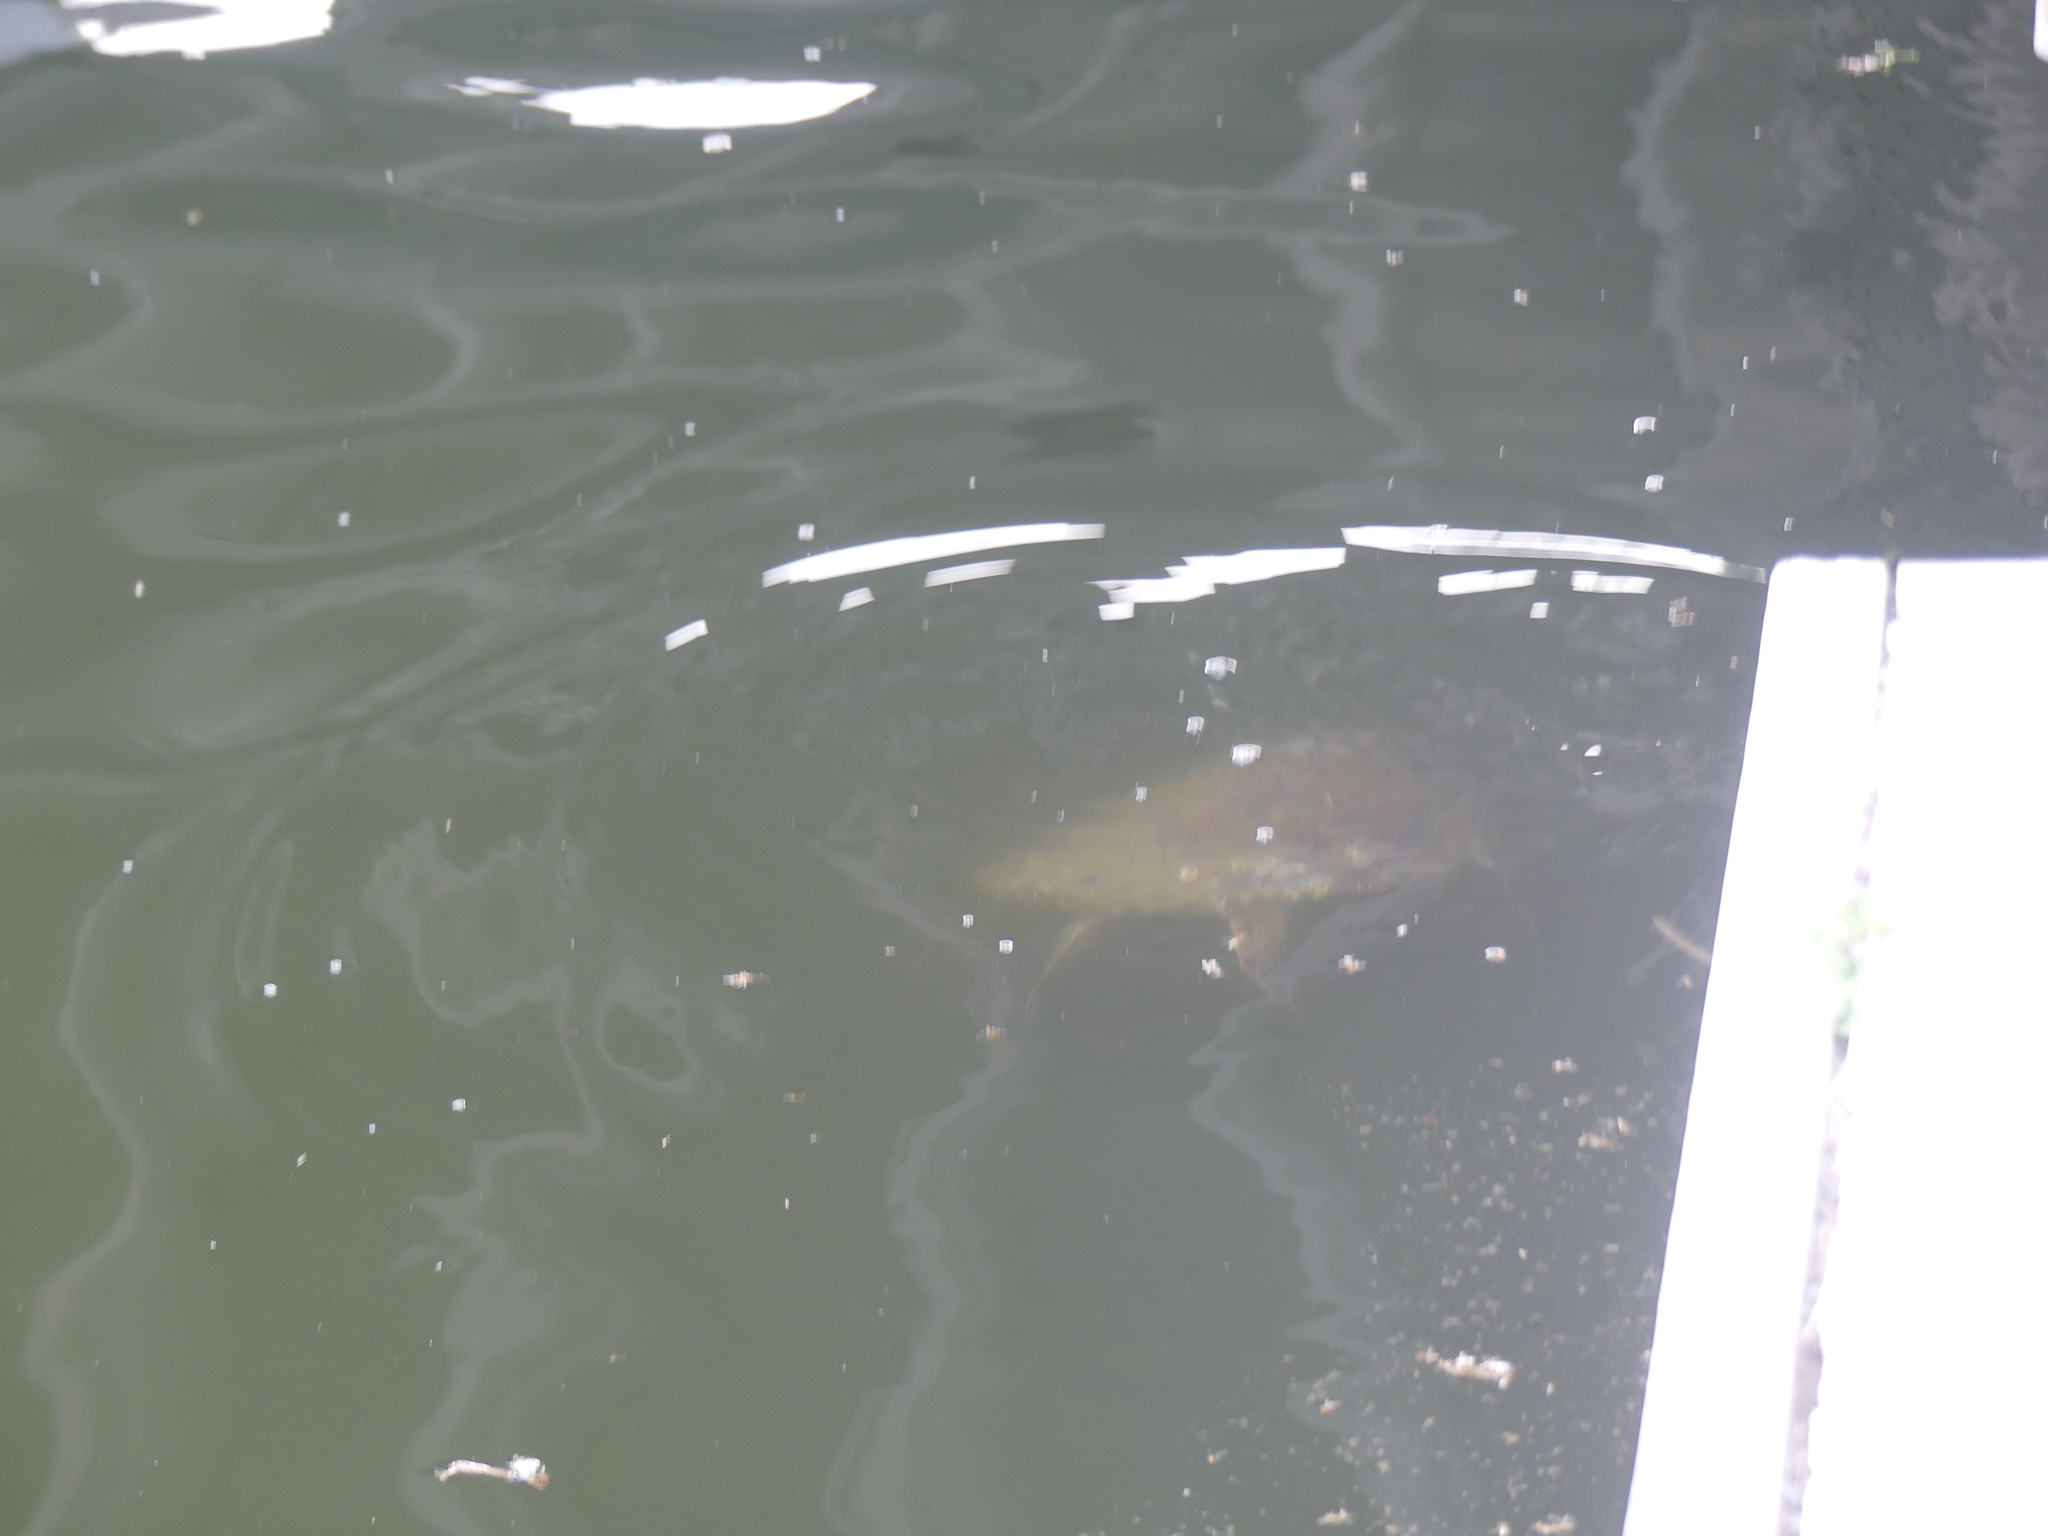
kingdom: Animalia
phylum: Chordata
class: Testudines
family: Cheloniidae
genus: Chelonia
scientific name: Chelonia mydas
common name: Green turtle
